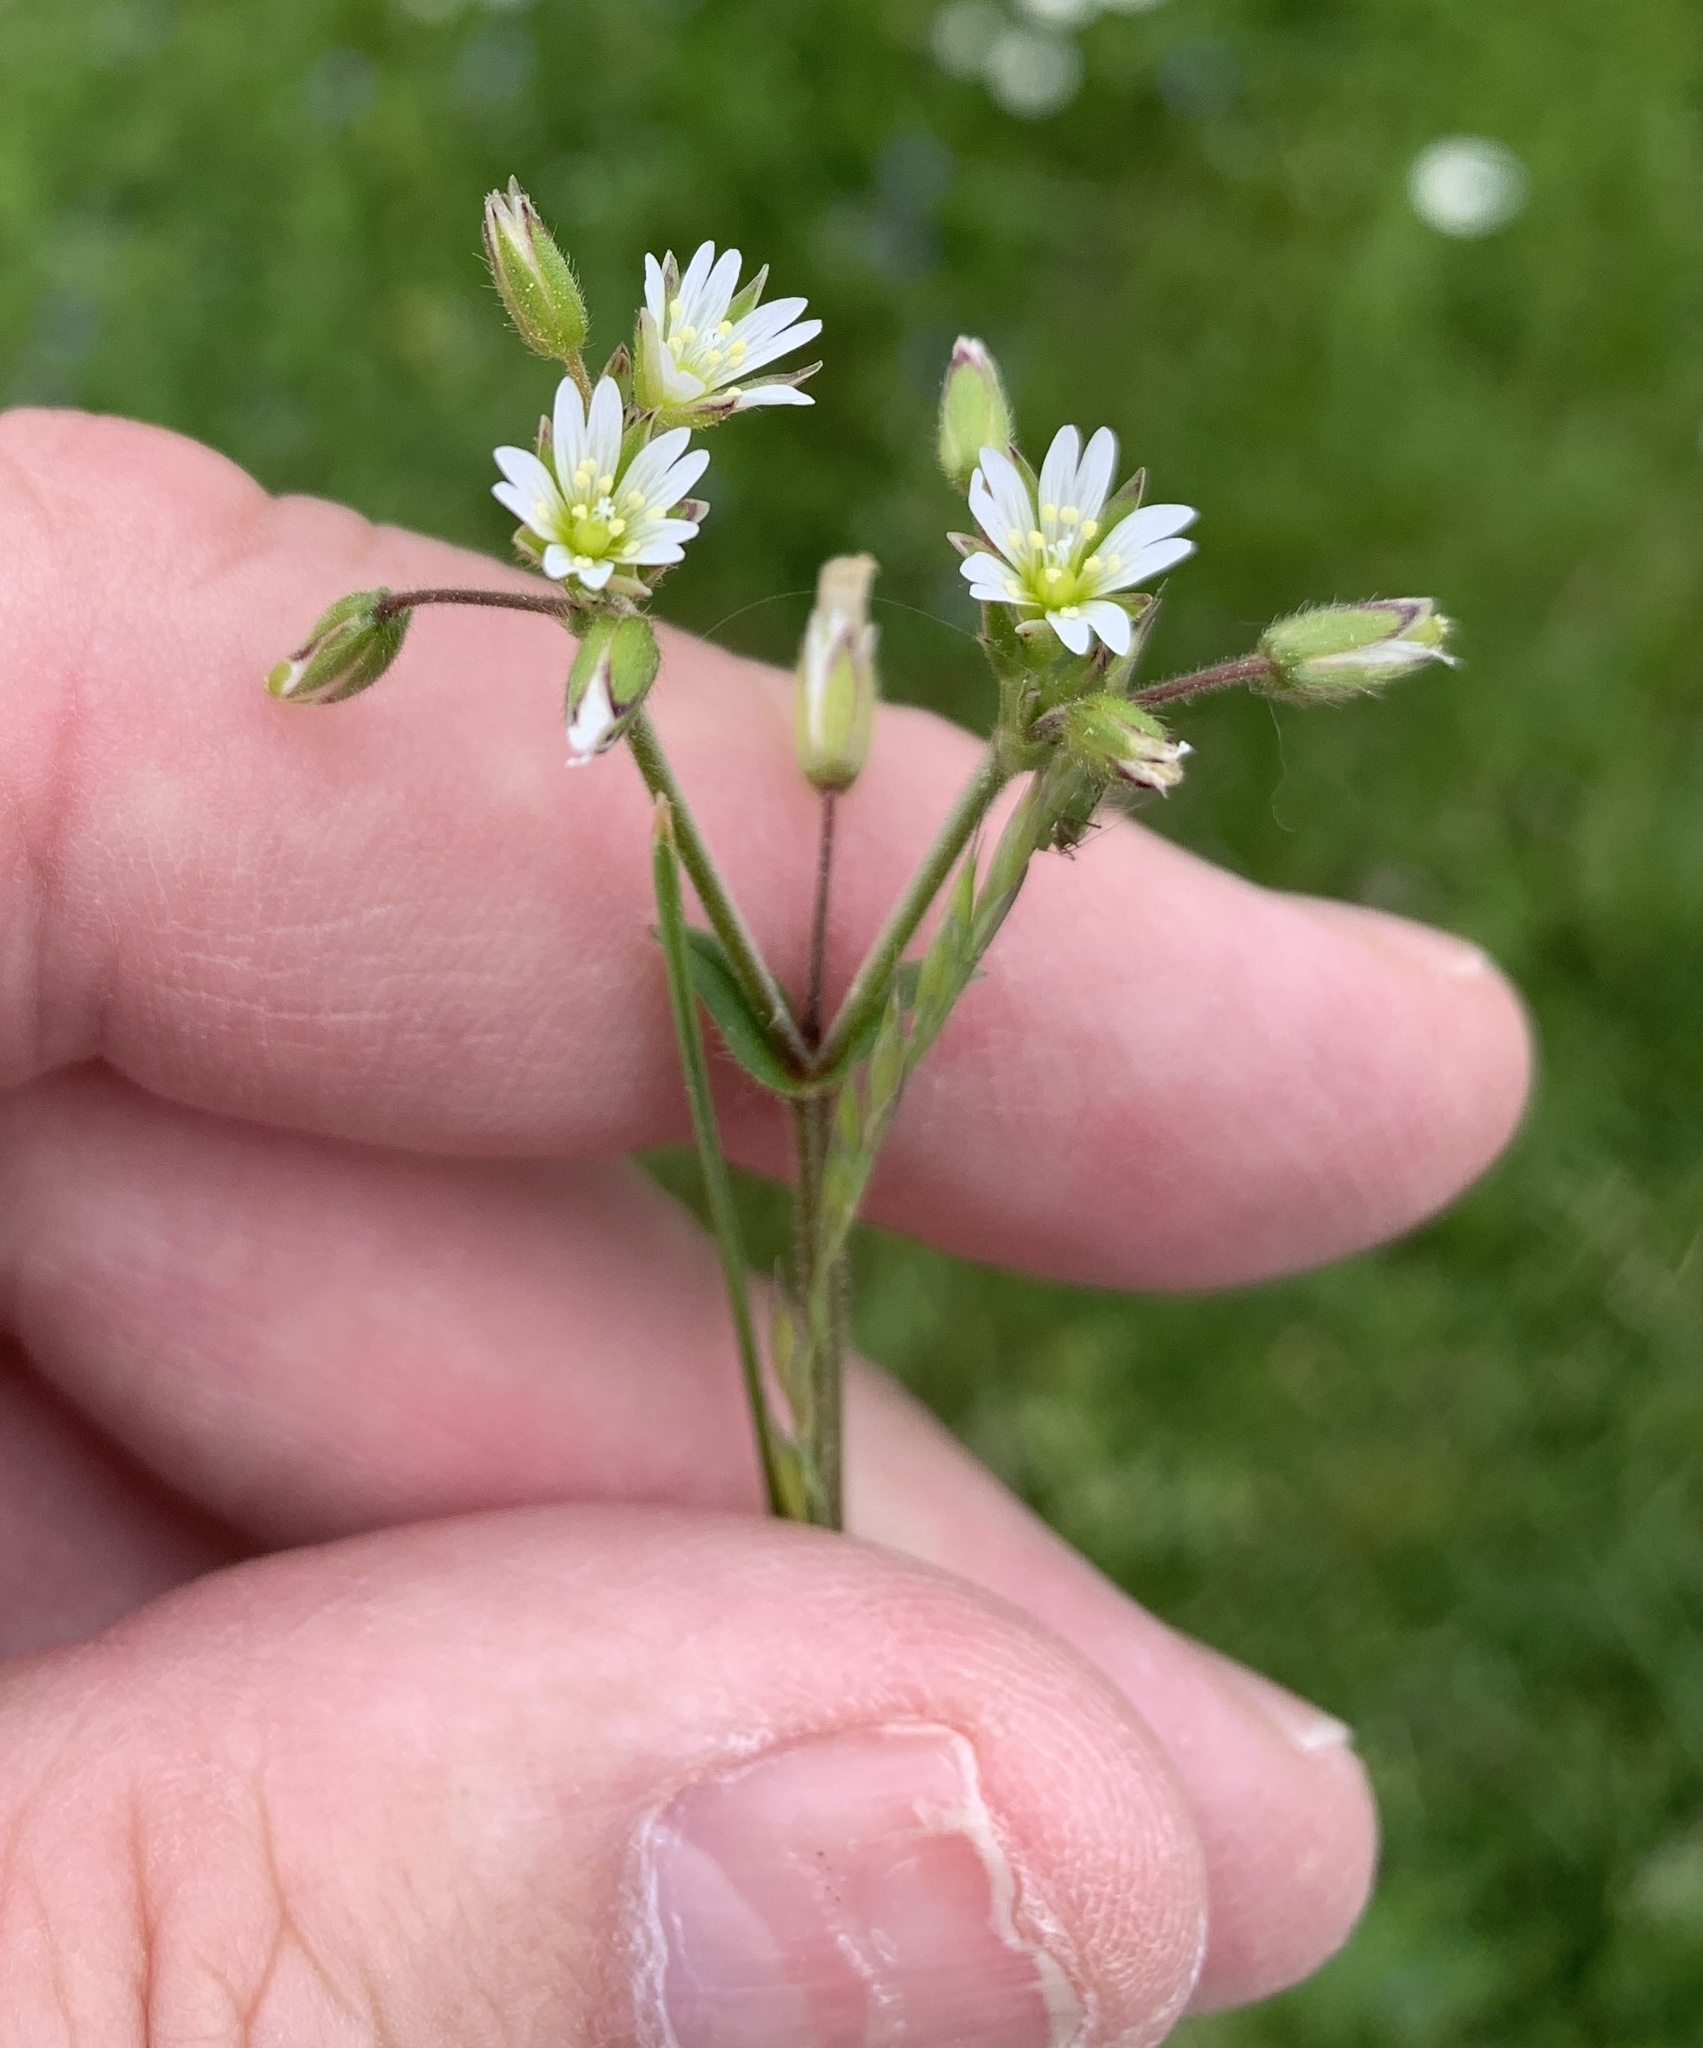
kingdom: Plantae
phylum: Tracheophyta
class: Magnoliopsida
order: Caryophyllales
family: Caryophyllaceae
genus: Cerastium
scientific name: Cerastium holosteoides
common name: Big chickweed
